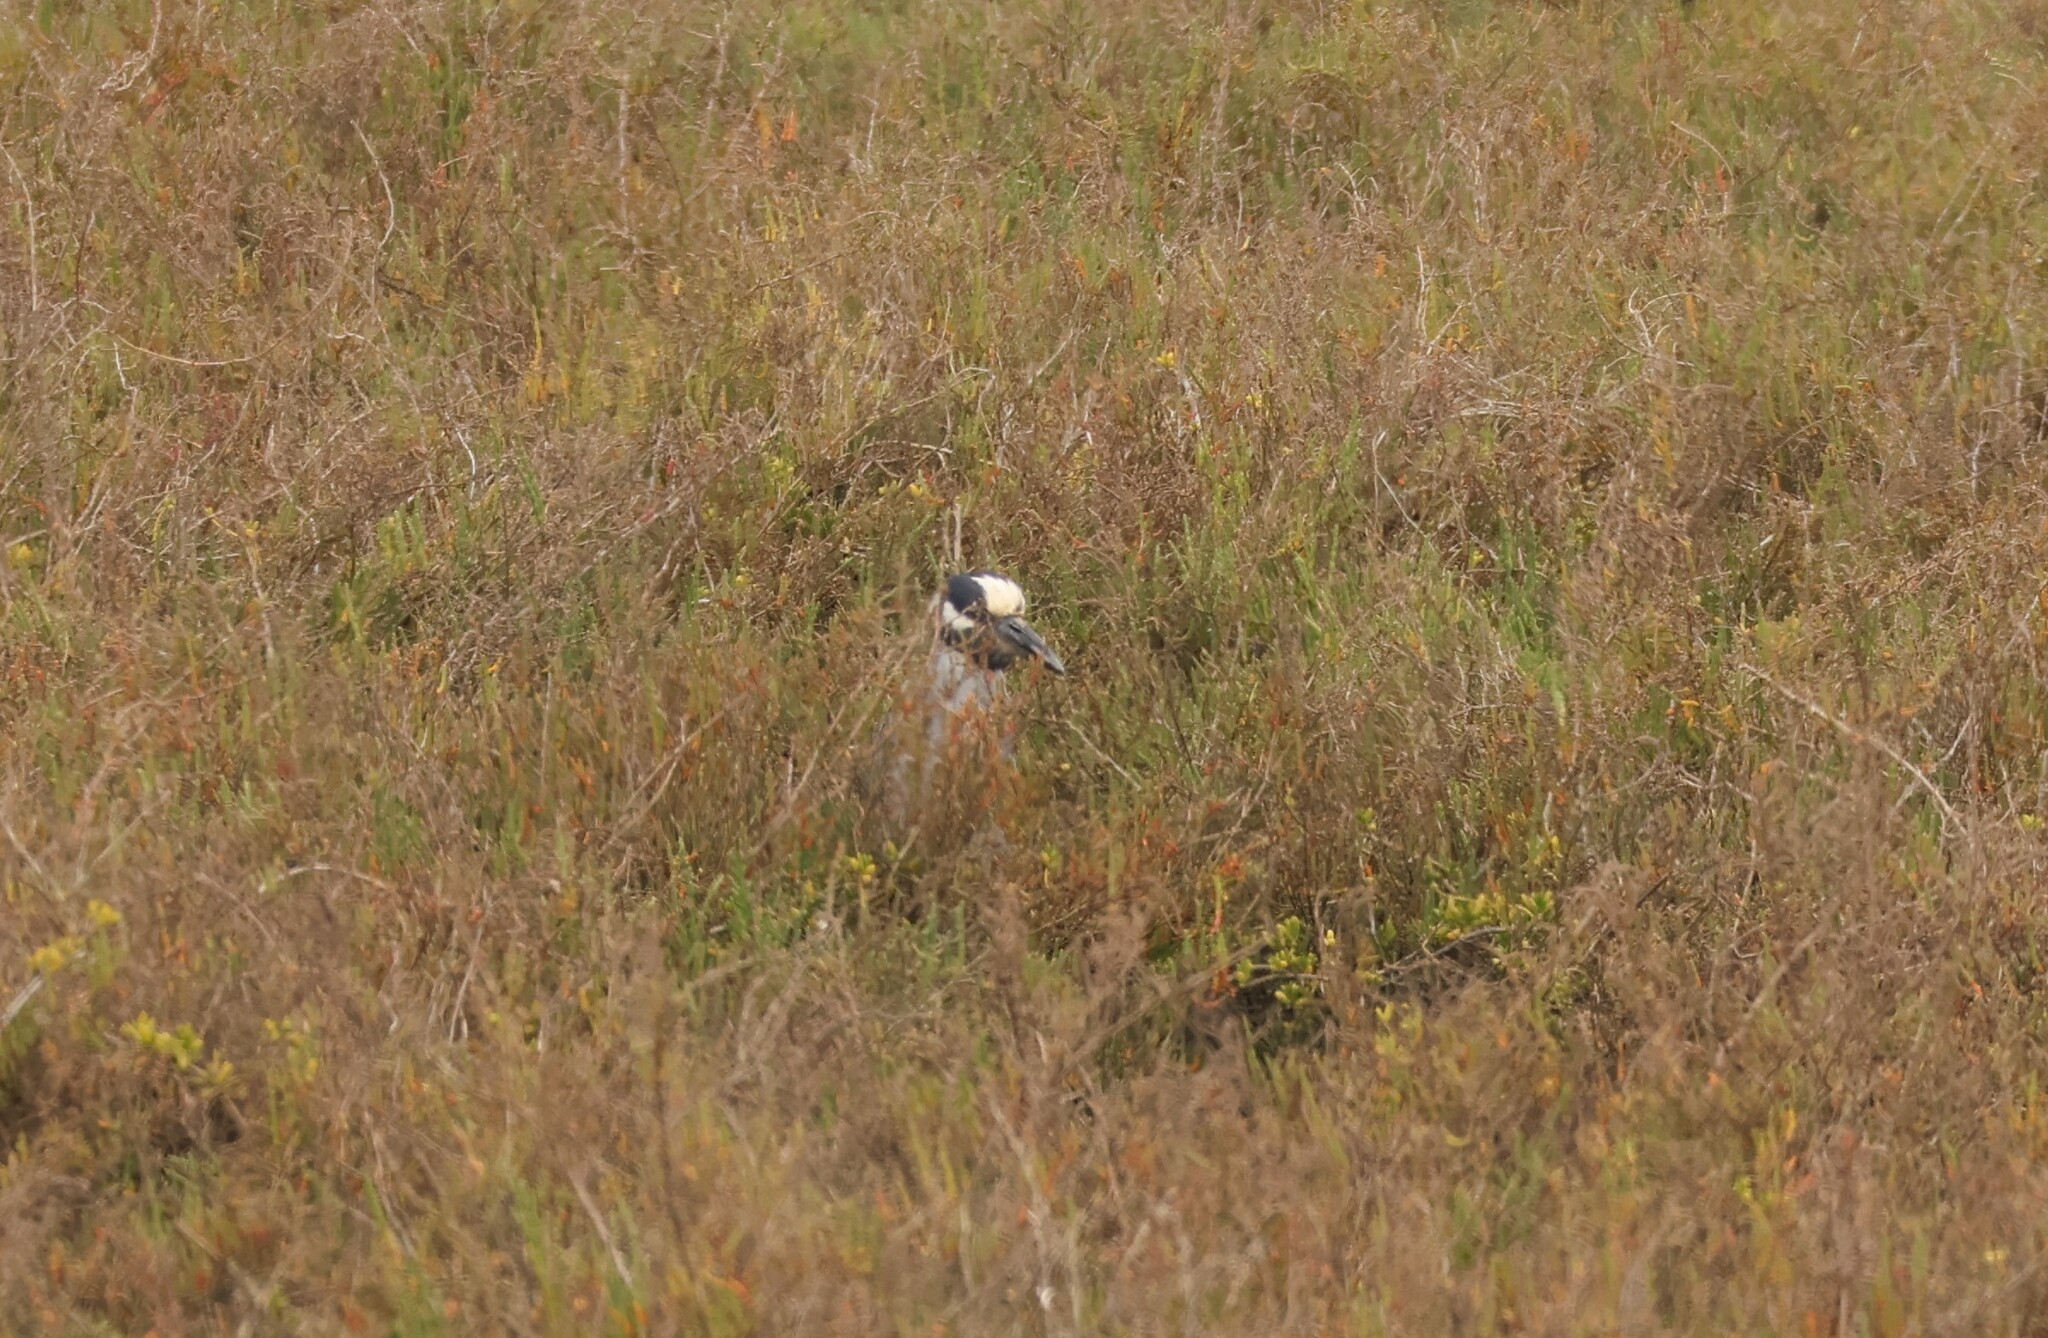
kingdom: Animalia
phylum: Chordata
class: Aves
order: Pelecaniformes
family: Ardeidae
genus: Nyctanassa
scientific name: Nyctanassa violacea
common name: Yellow-crowned night heron
